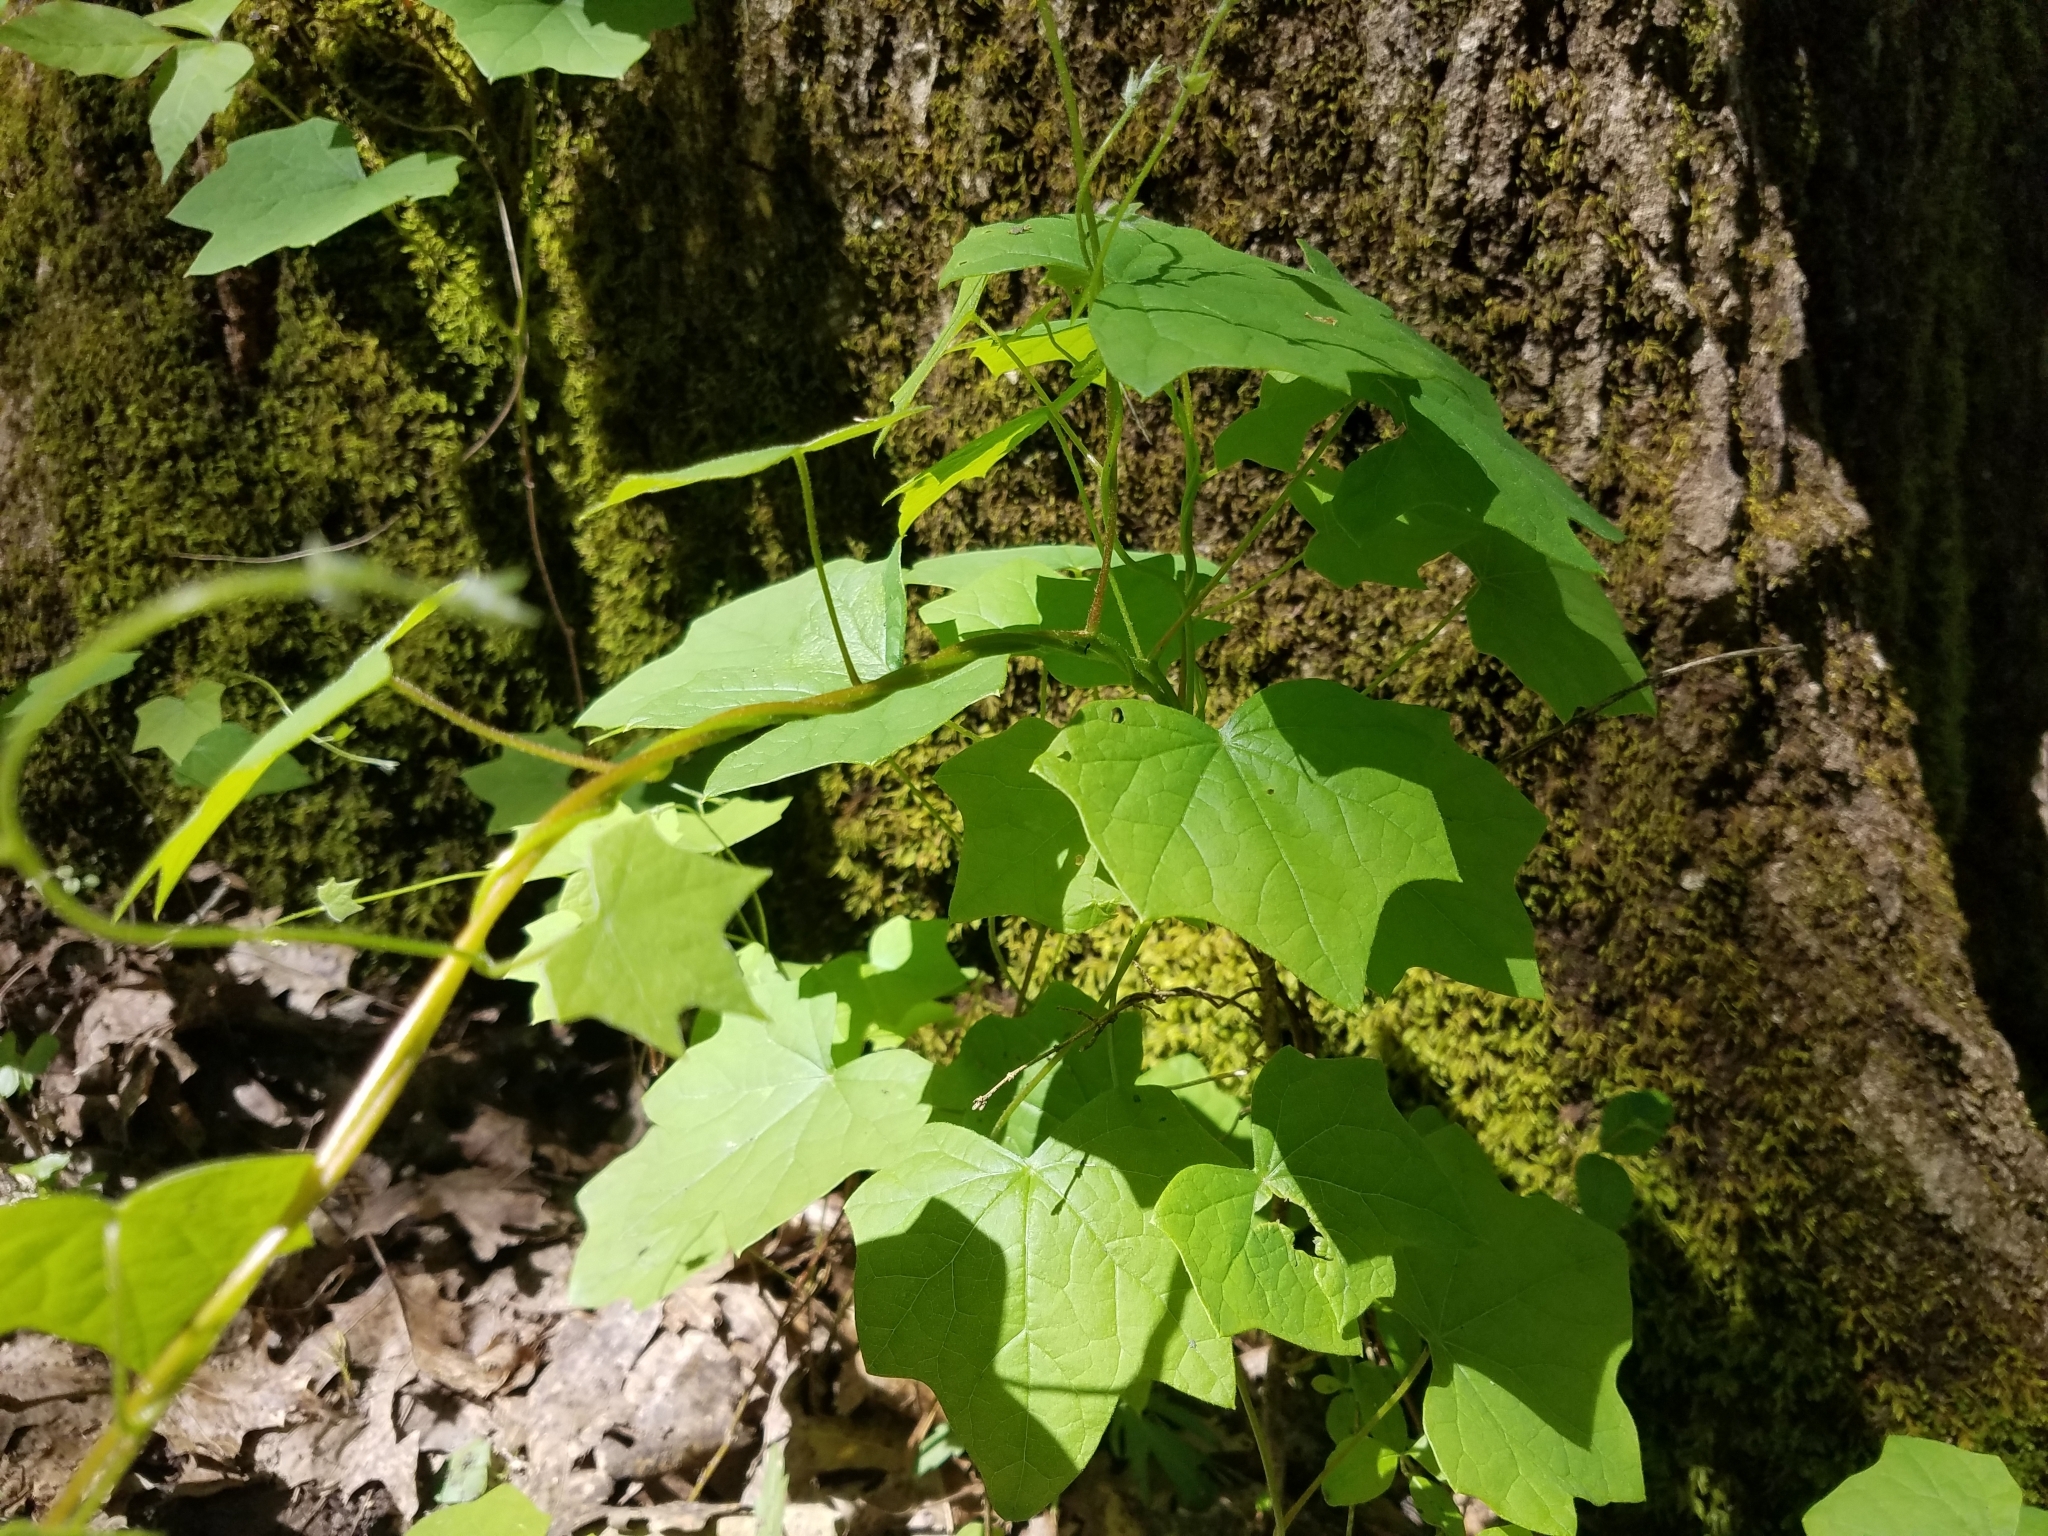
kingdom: Plantae
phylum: Tracheophyta
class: Magnoliopsida
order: Ranunculales
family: Menispermaceae
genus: Menispermum
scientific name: Menispermum canadense
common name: Moonseed
